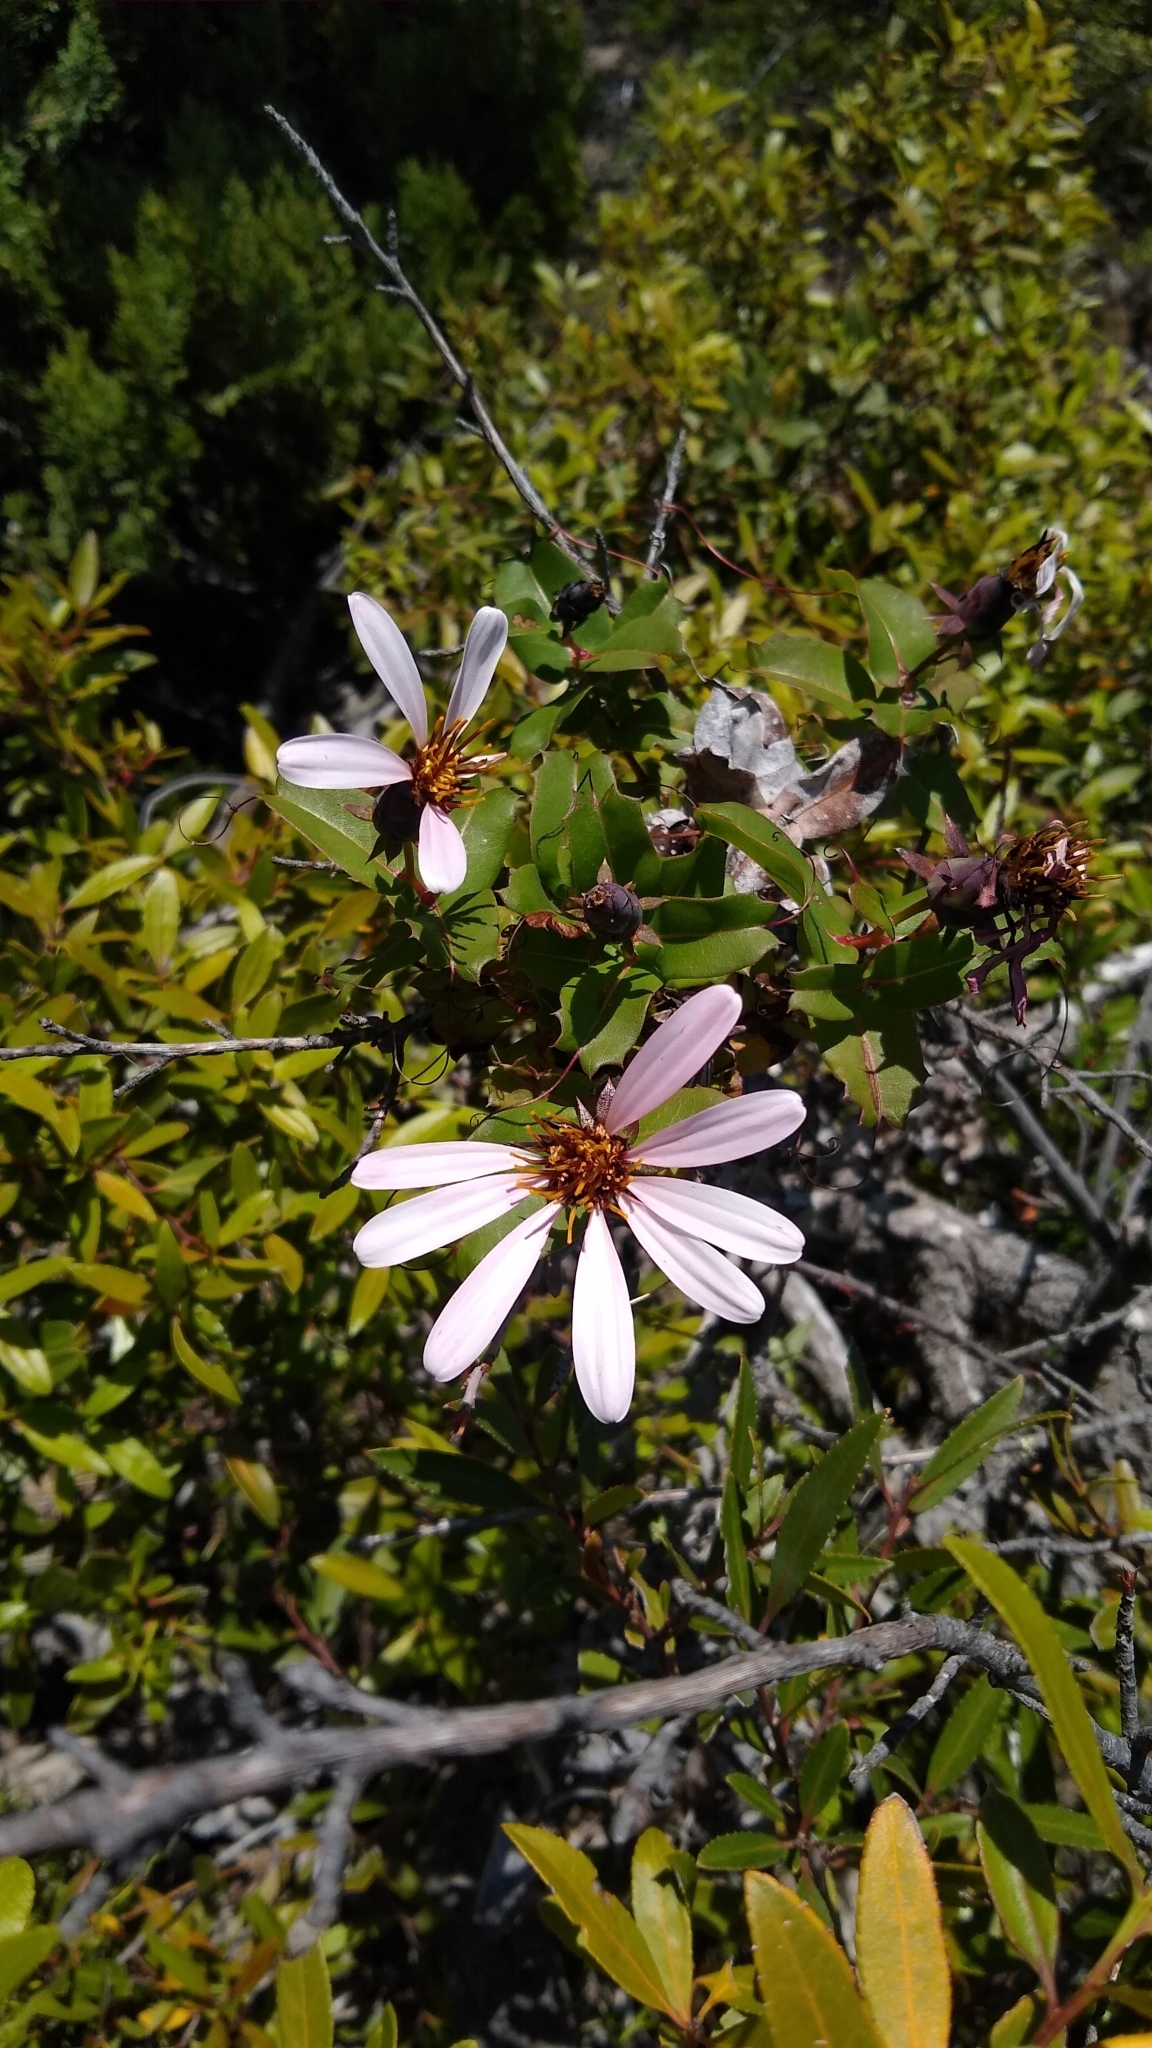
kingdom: Plantae
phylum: Tracheophyta
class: Magnoliopsida
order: Asterales
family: Asteraceae
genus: Mutisia
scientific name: Mutisia spinosa
